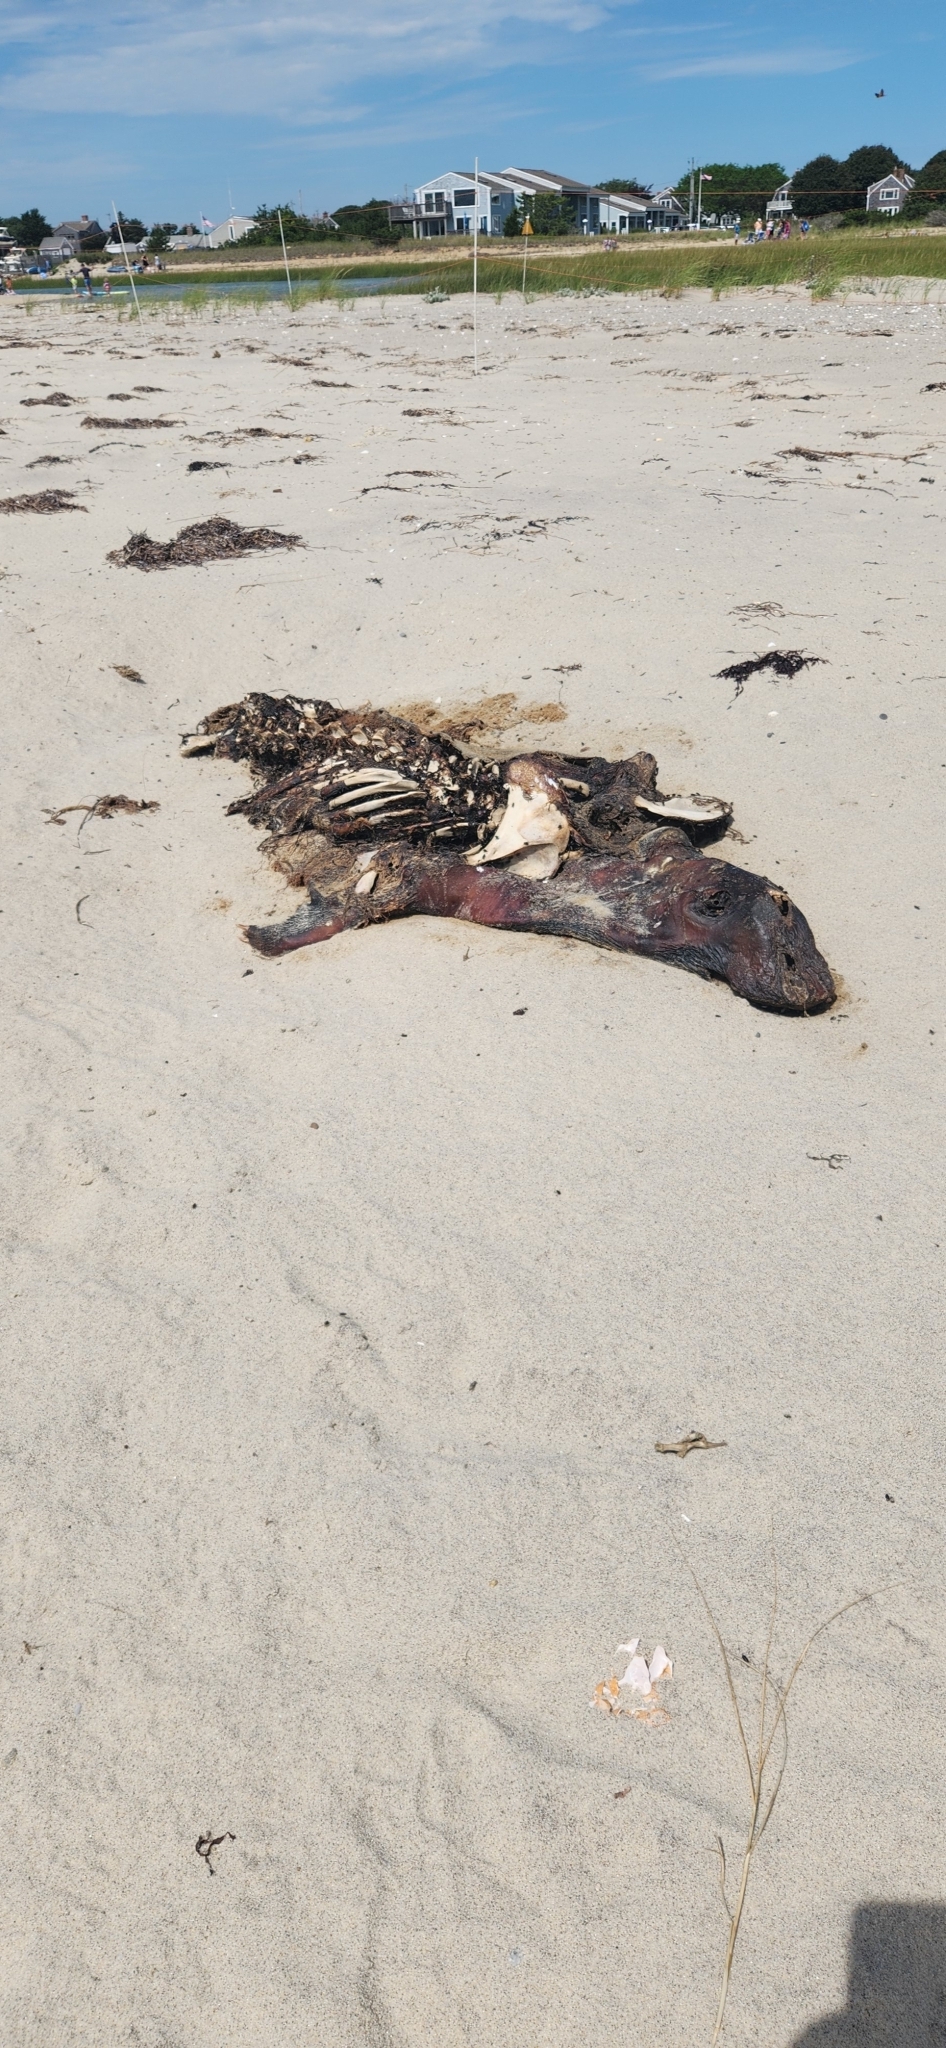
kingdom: Animalia
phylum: Chordata
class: Mammalia
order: Carnivora
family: Phocidae
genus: Halichoerus
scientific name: Halichoerus grypus
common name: Grey seal
